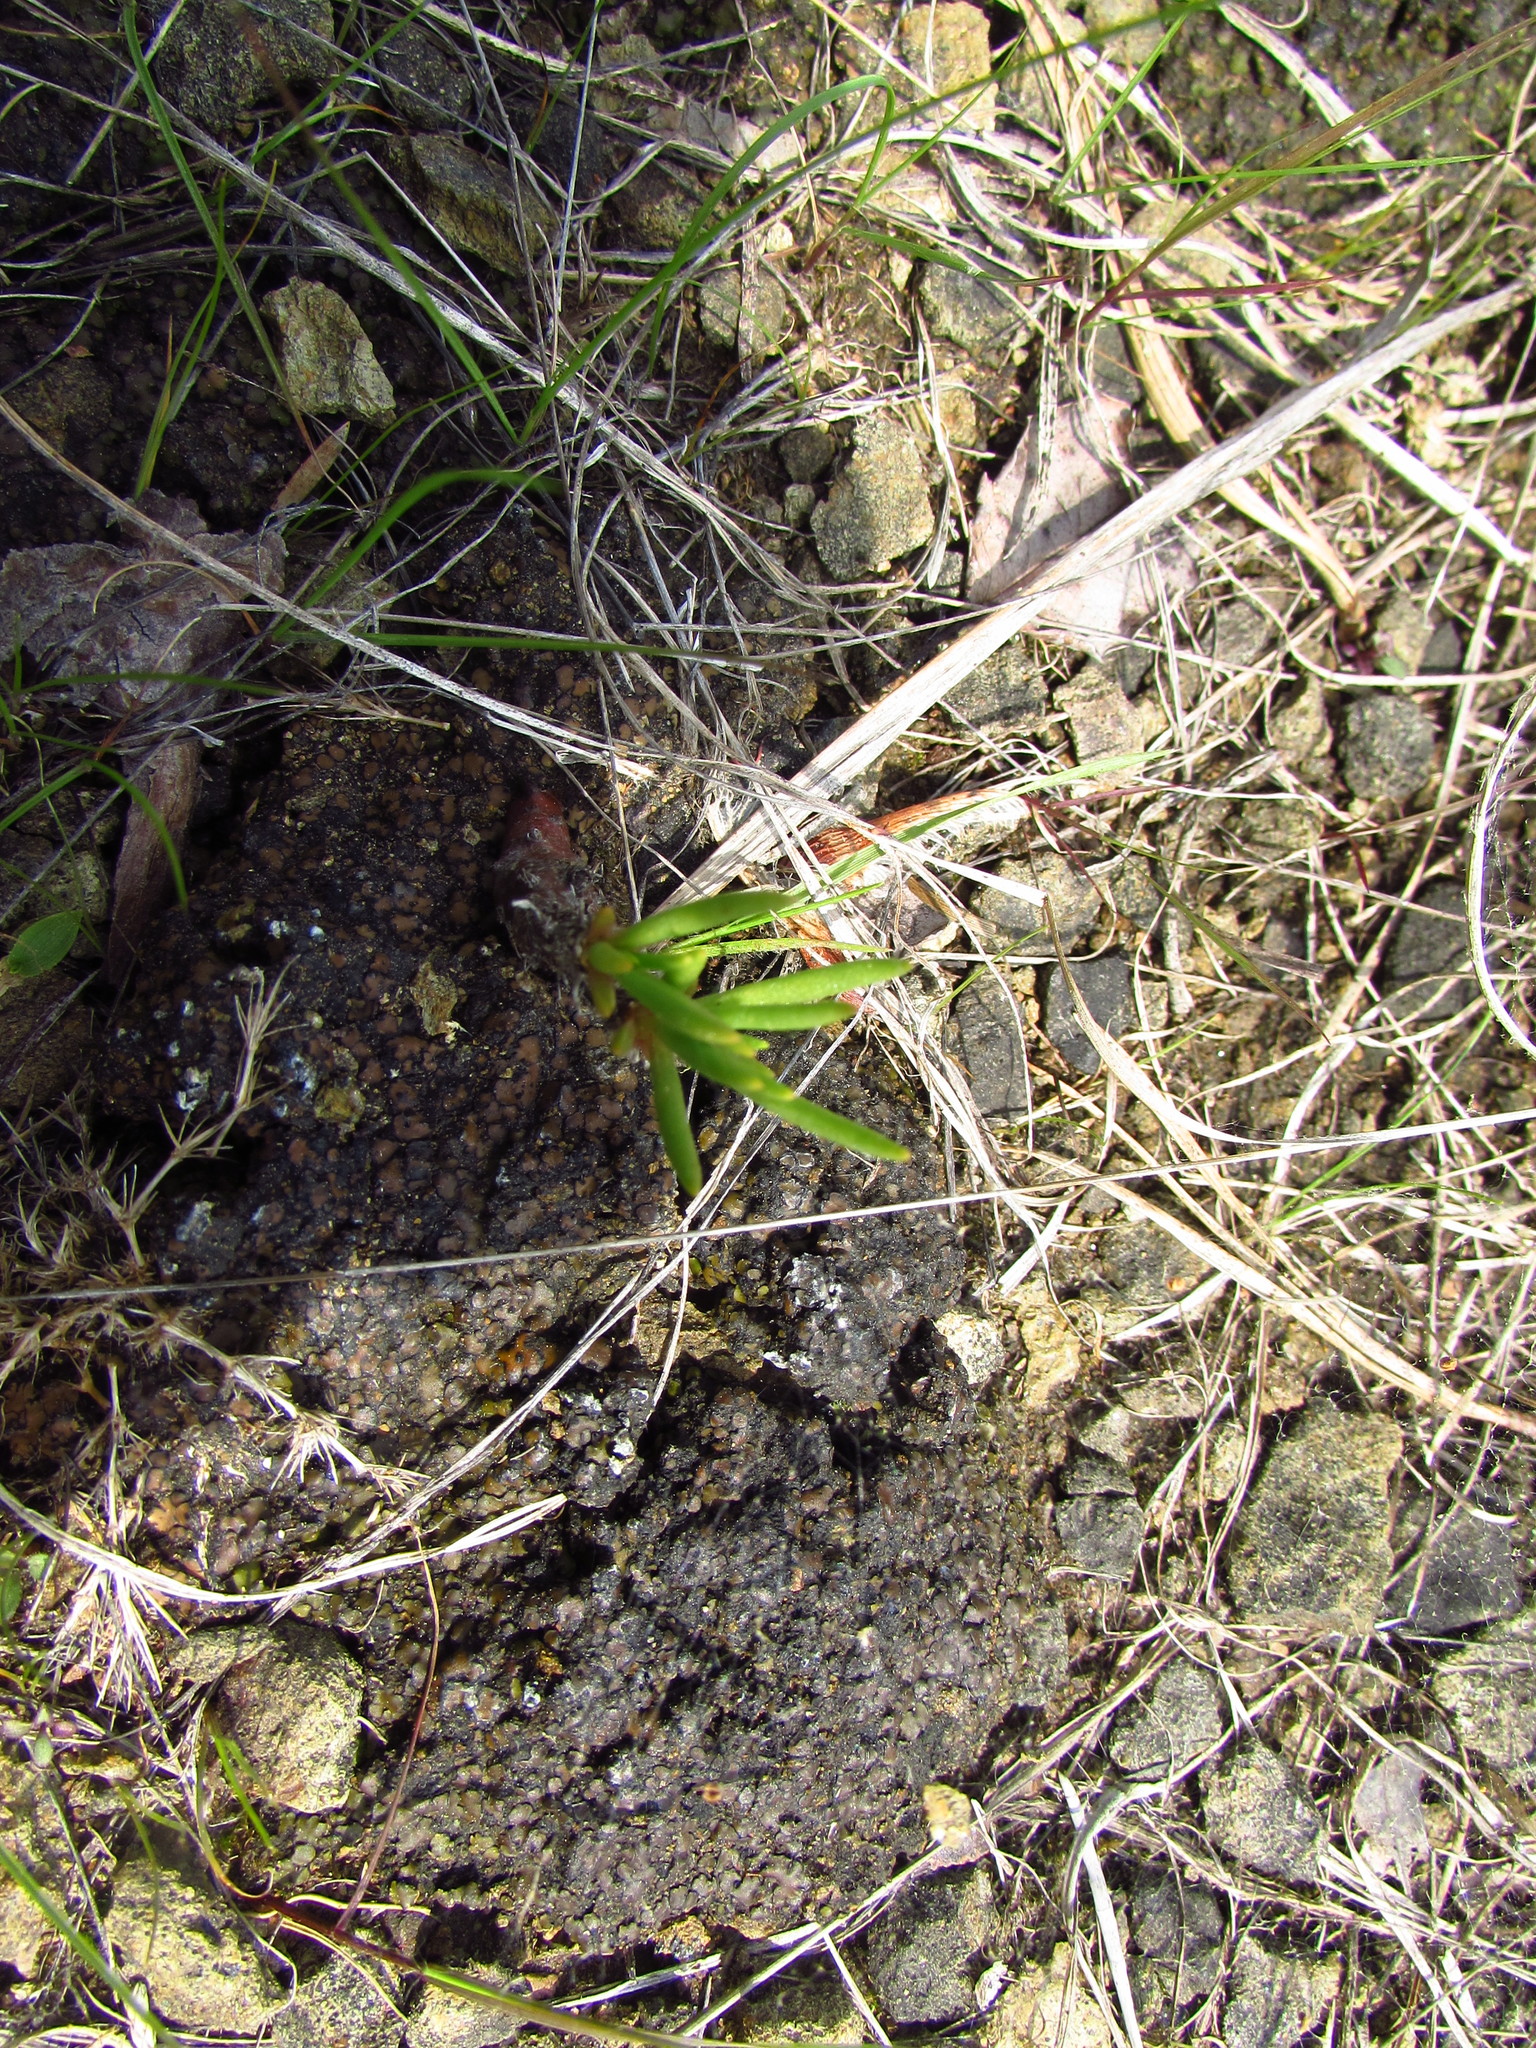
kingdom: Plantae
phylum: Tracheophyta
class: Magnoliopsida
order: Caryophyllales
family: Montiaceae
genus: Phemeranthus
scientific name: Phemeranthus teretifolius
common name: Quill fameflower
